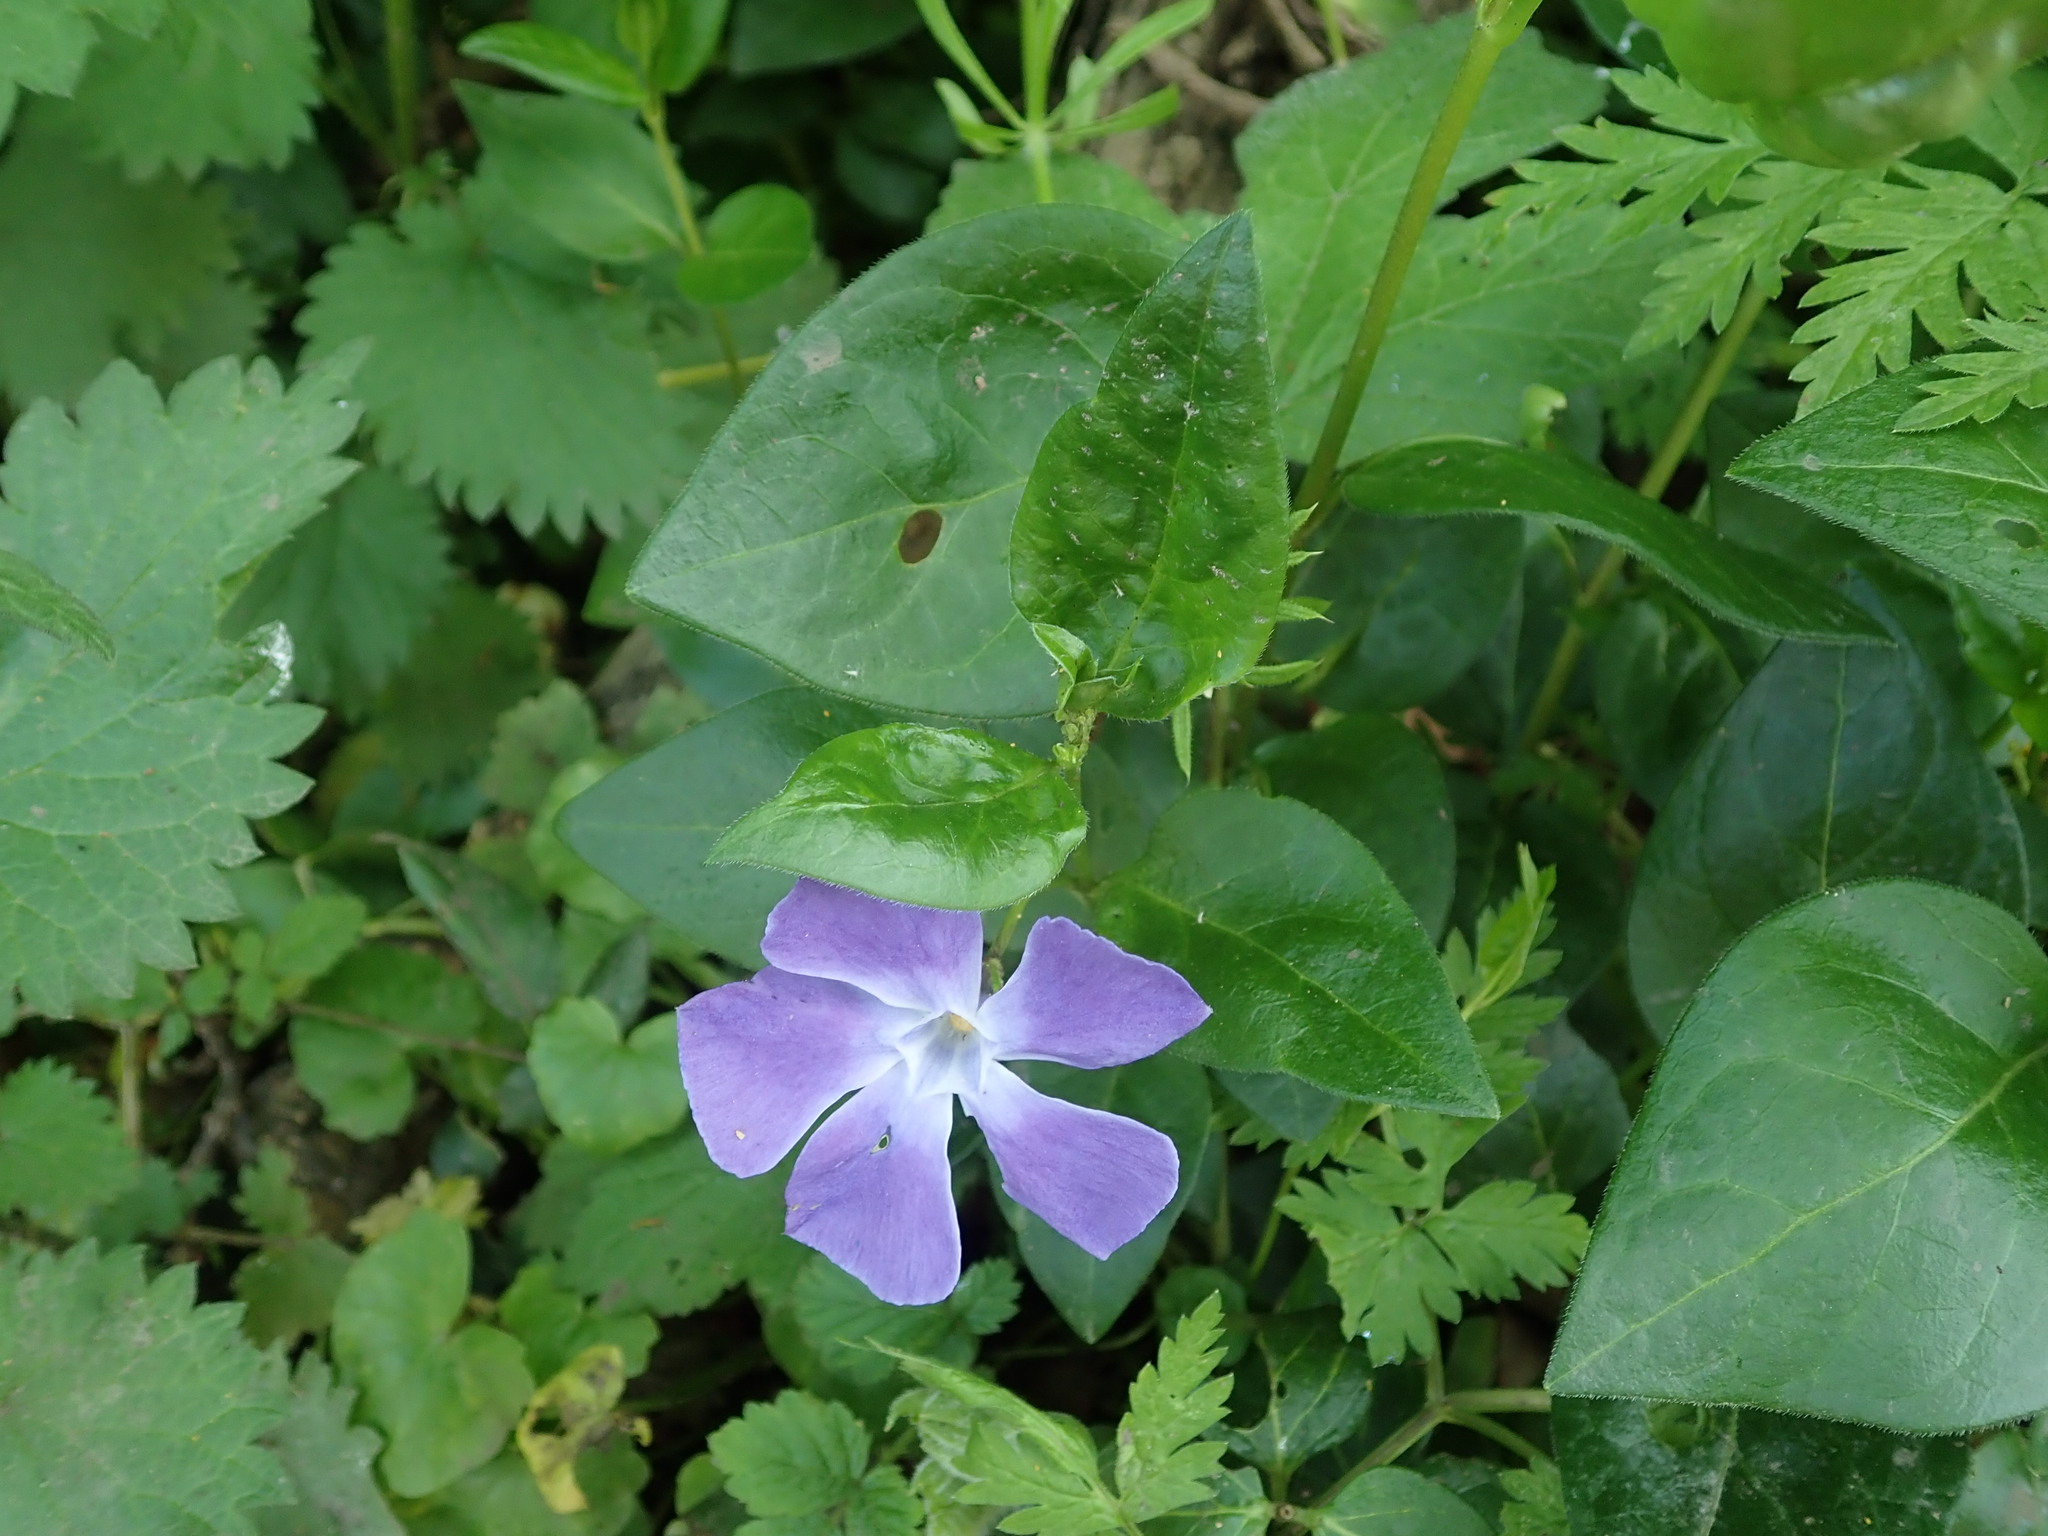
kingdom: Plantae
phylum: Tracheophyta
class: Magnoliopsida
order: Gentianales
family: Apocynaceae
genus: Vinca
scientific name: Vinca major
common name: Greater periwinkle
